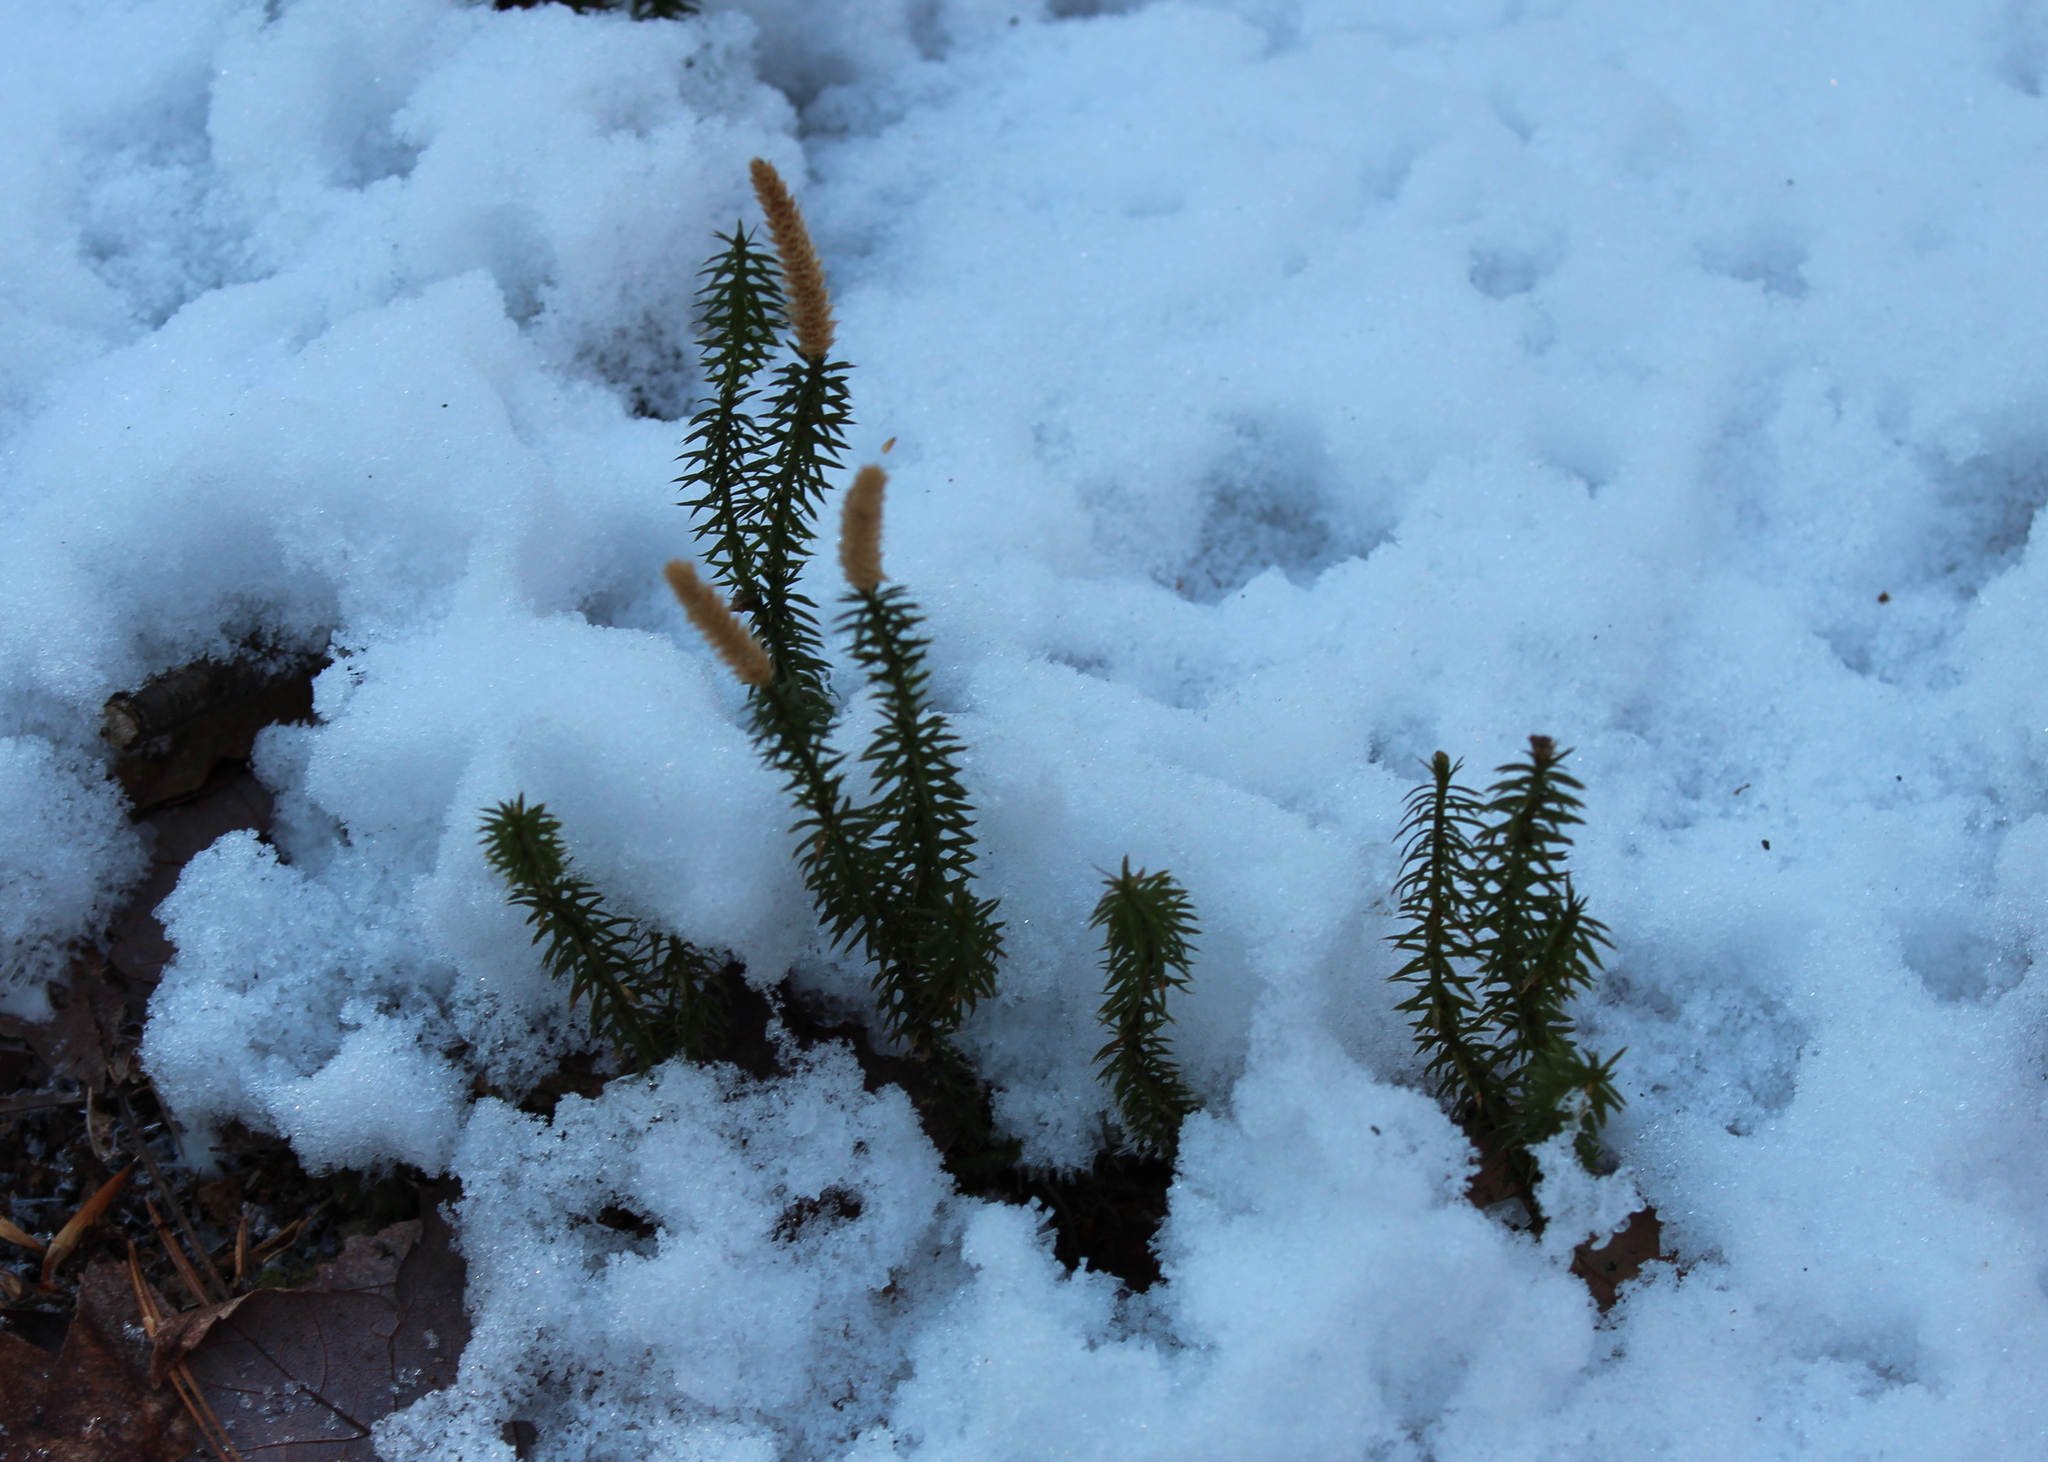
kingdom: Plantae
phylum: Tracheophyta
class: Lycopodiopsida
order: Lycopodiales
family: Lycopodiaceae
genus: Spinulum
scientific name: Spinulum annotinum
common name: Interrupted club-moss
